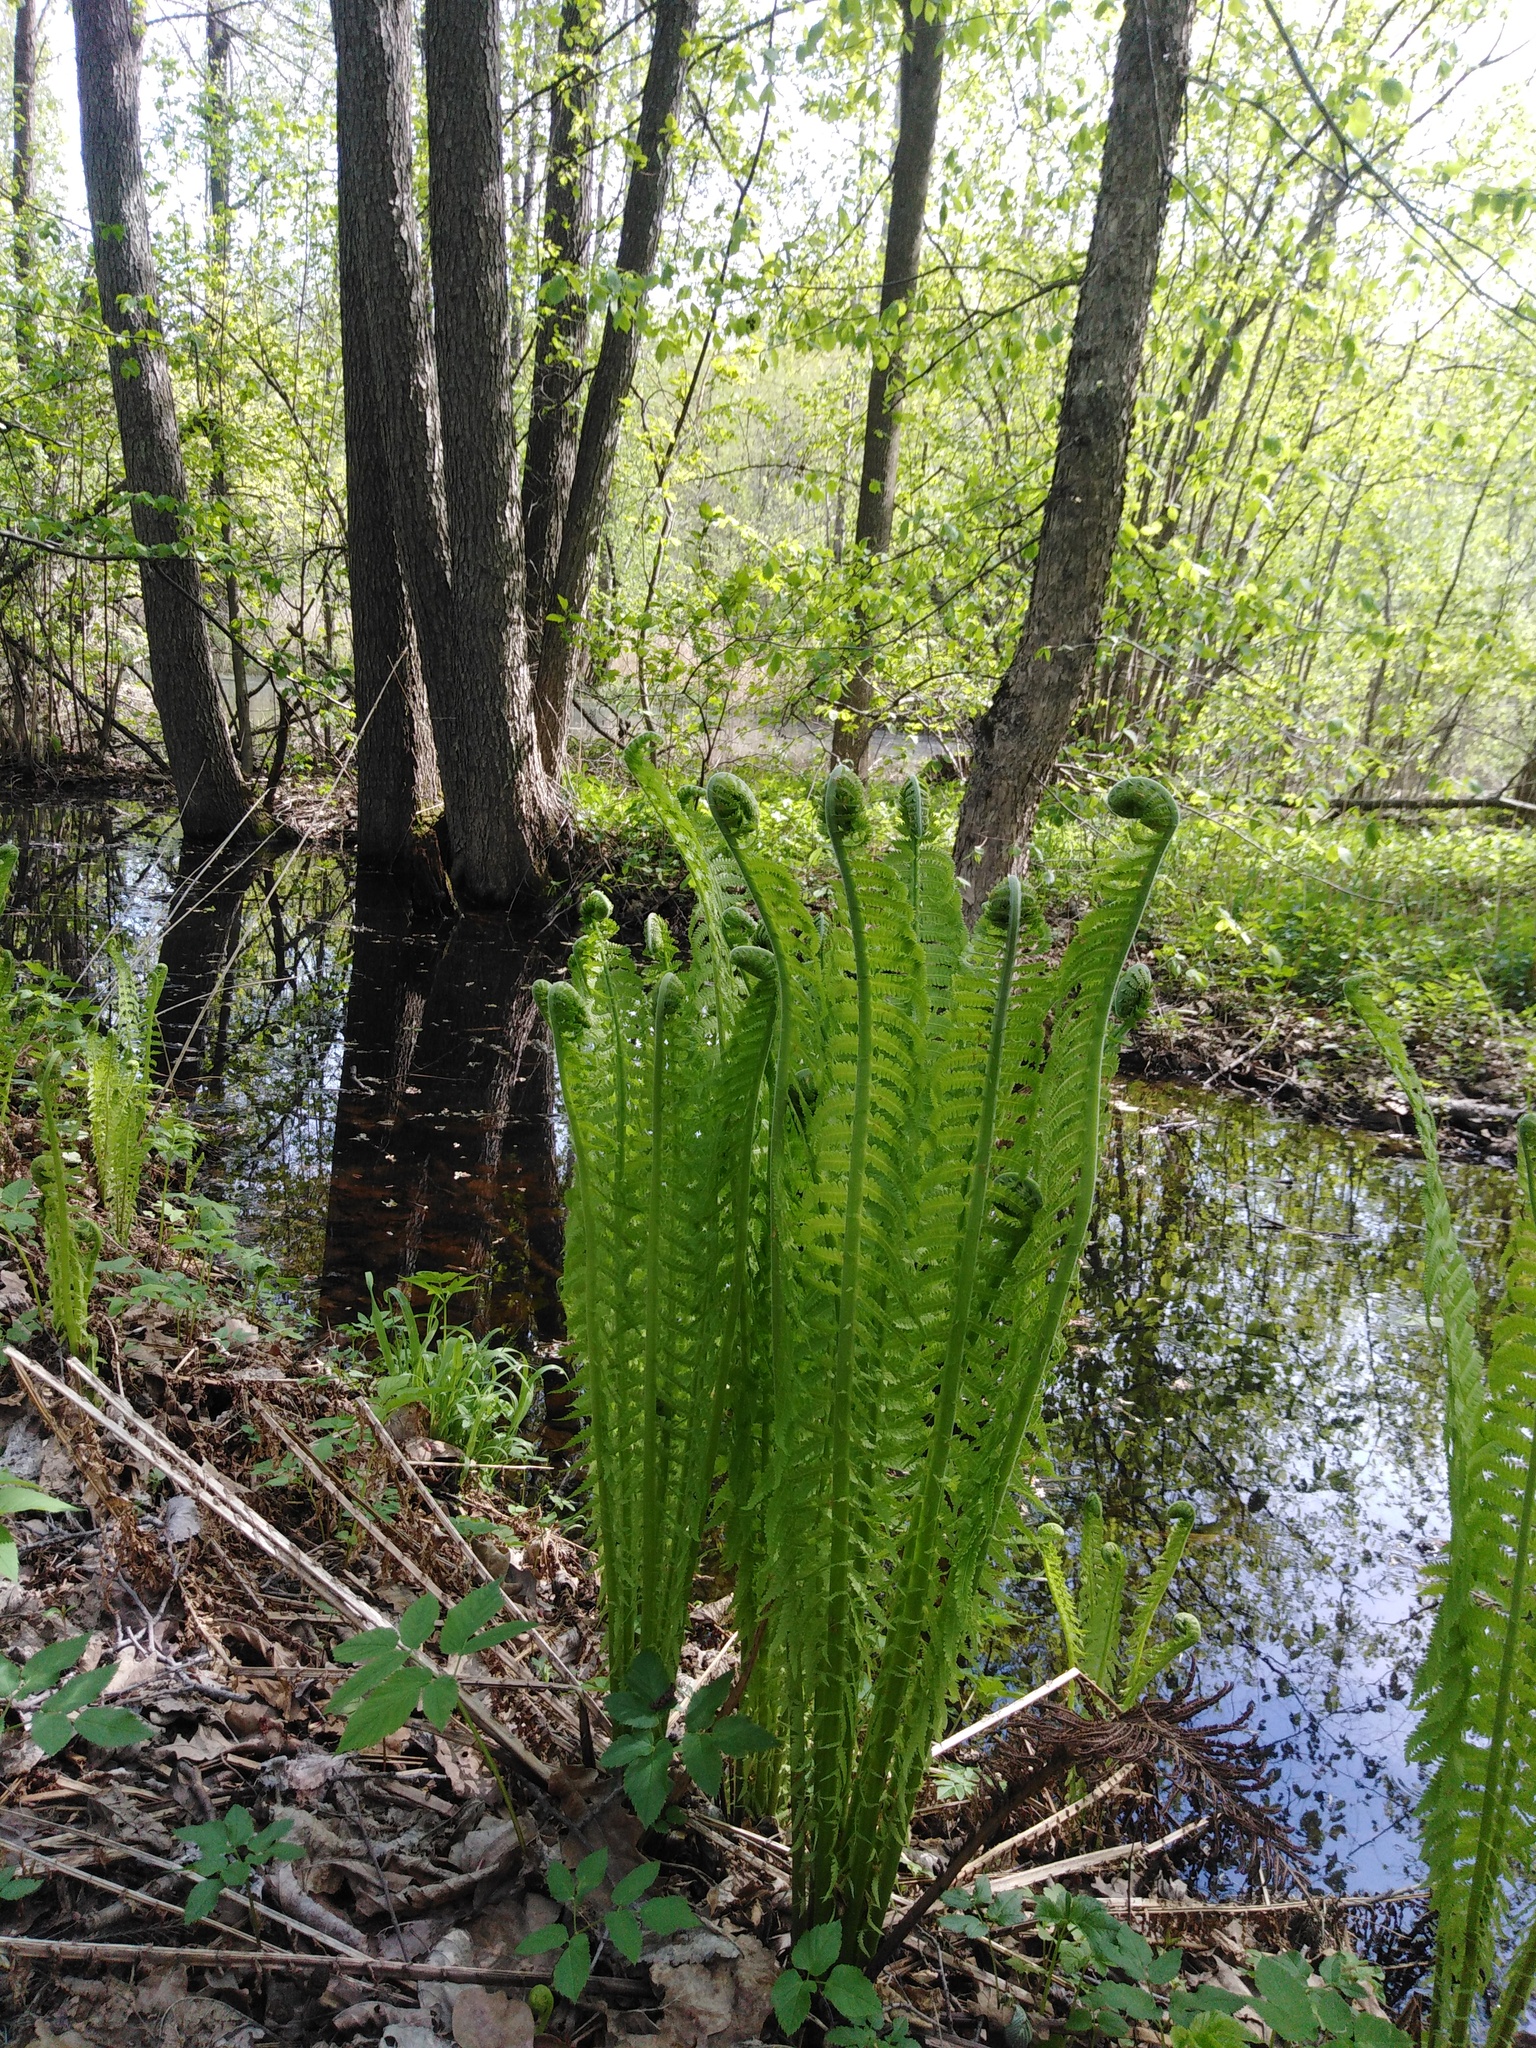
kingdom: Plantae
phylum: Tracheophyta
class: Polypodiopsida
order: Polypodiales
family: Onocleaceae
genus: Matteuccia
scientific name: Matteuccia struthiopteris
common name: Ostrich fern
